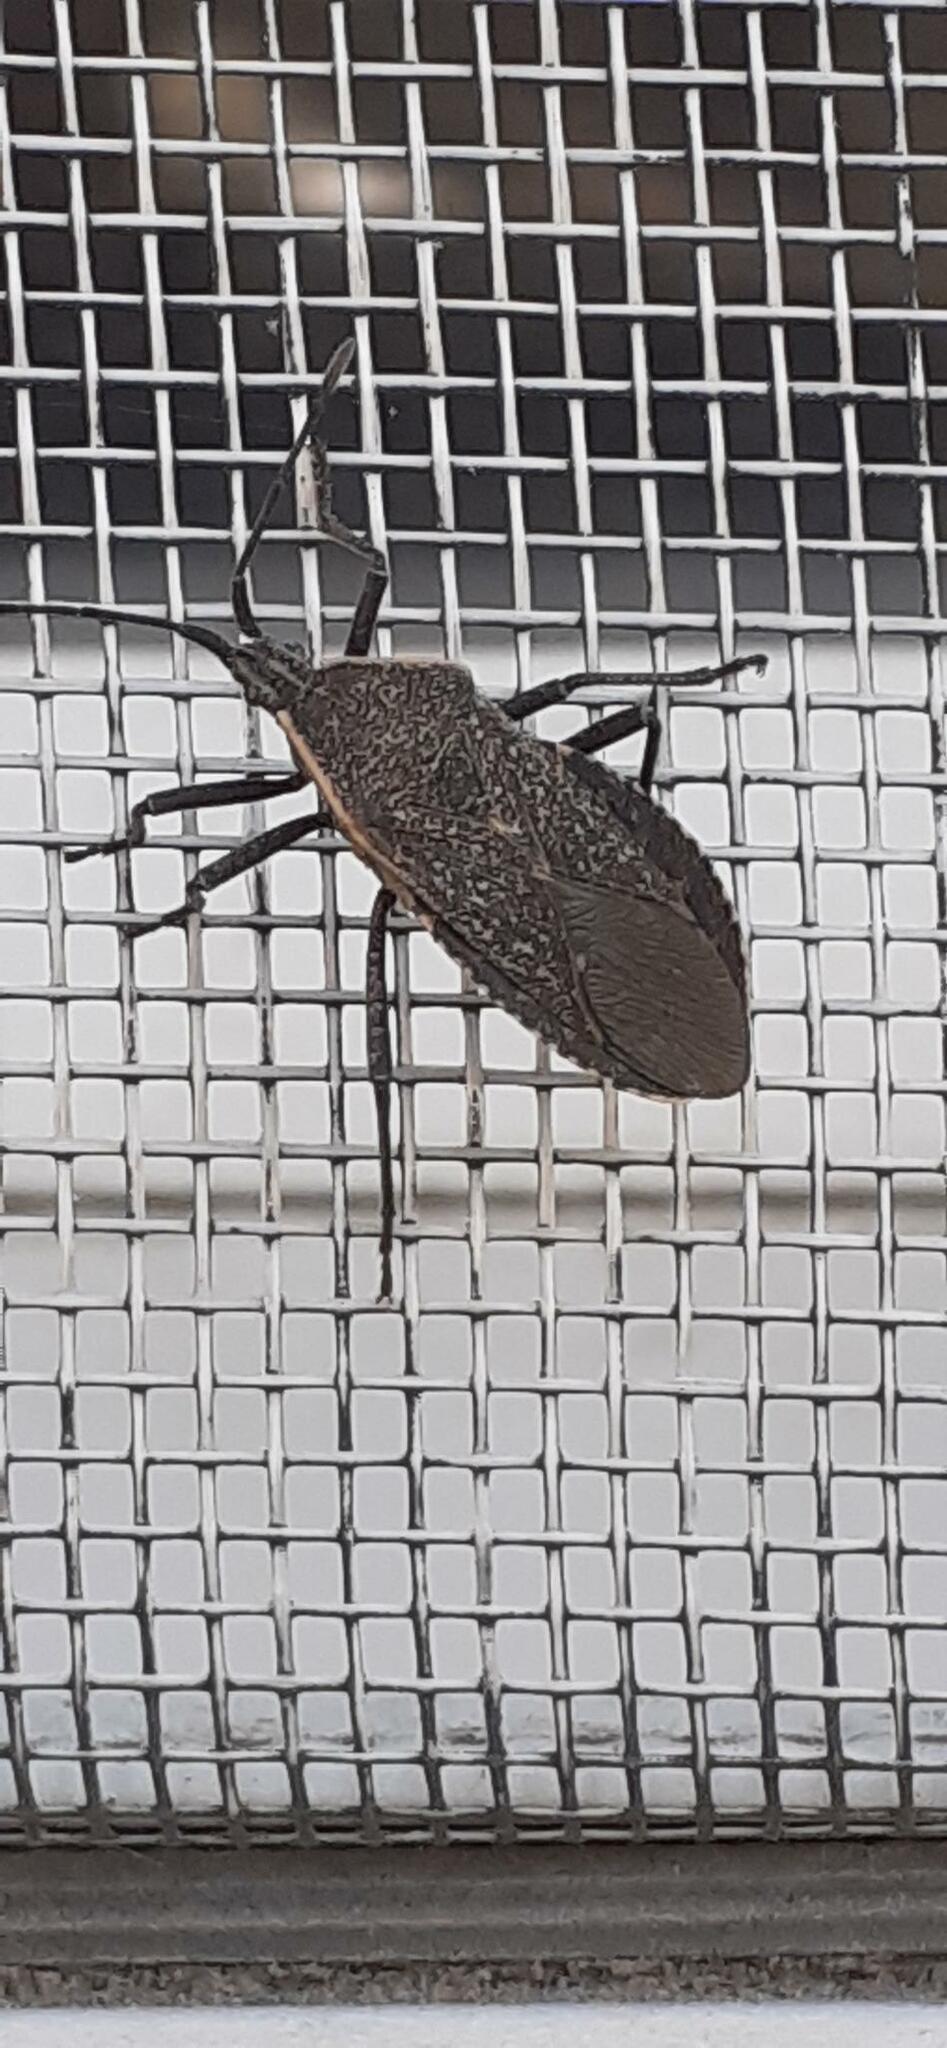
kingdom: Animalia
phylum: Arthropoda
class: Insecta
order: Hemiptera
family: Coreidae
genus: Anasa
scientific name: Anasa tristis
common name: Squash bug
